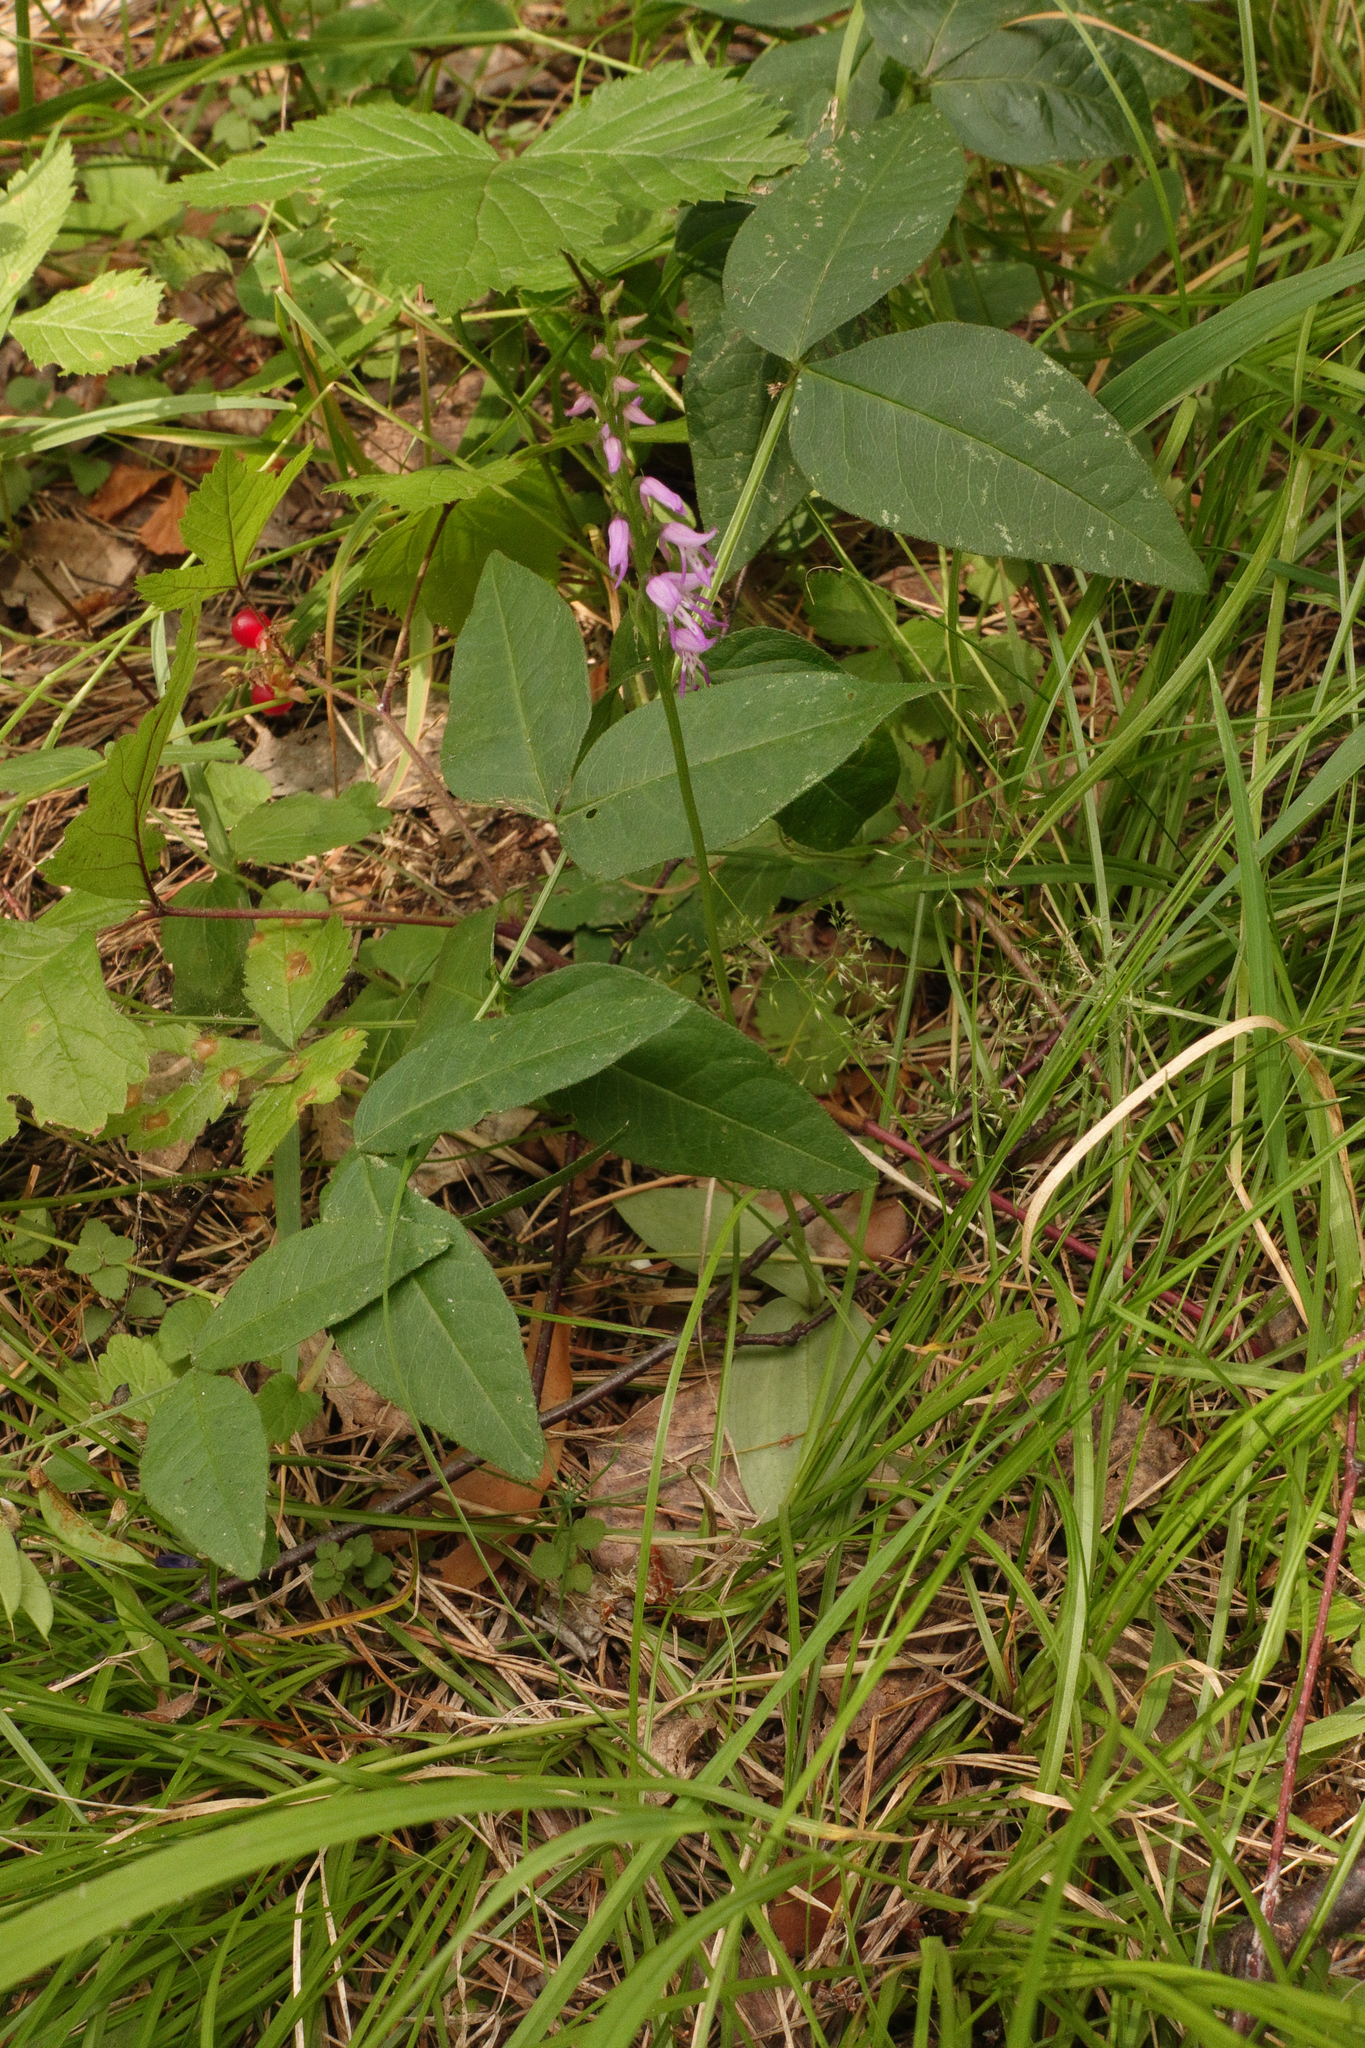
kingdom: Plantae
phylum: Tracheophyta
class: Liliopsida
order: Asparagales
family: Orchidaceae
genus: Hemipilia
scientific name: Hemipilia cucullata
